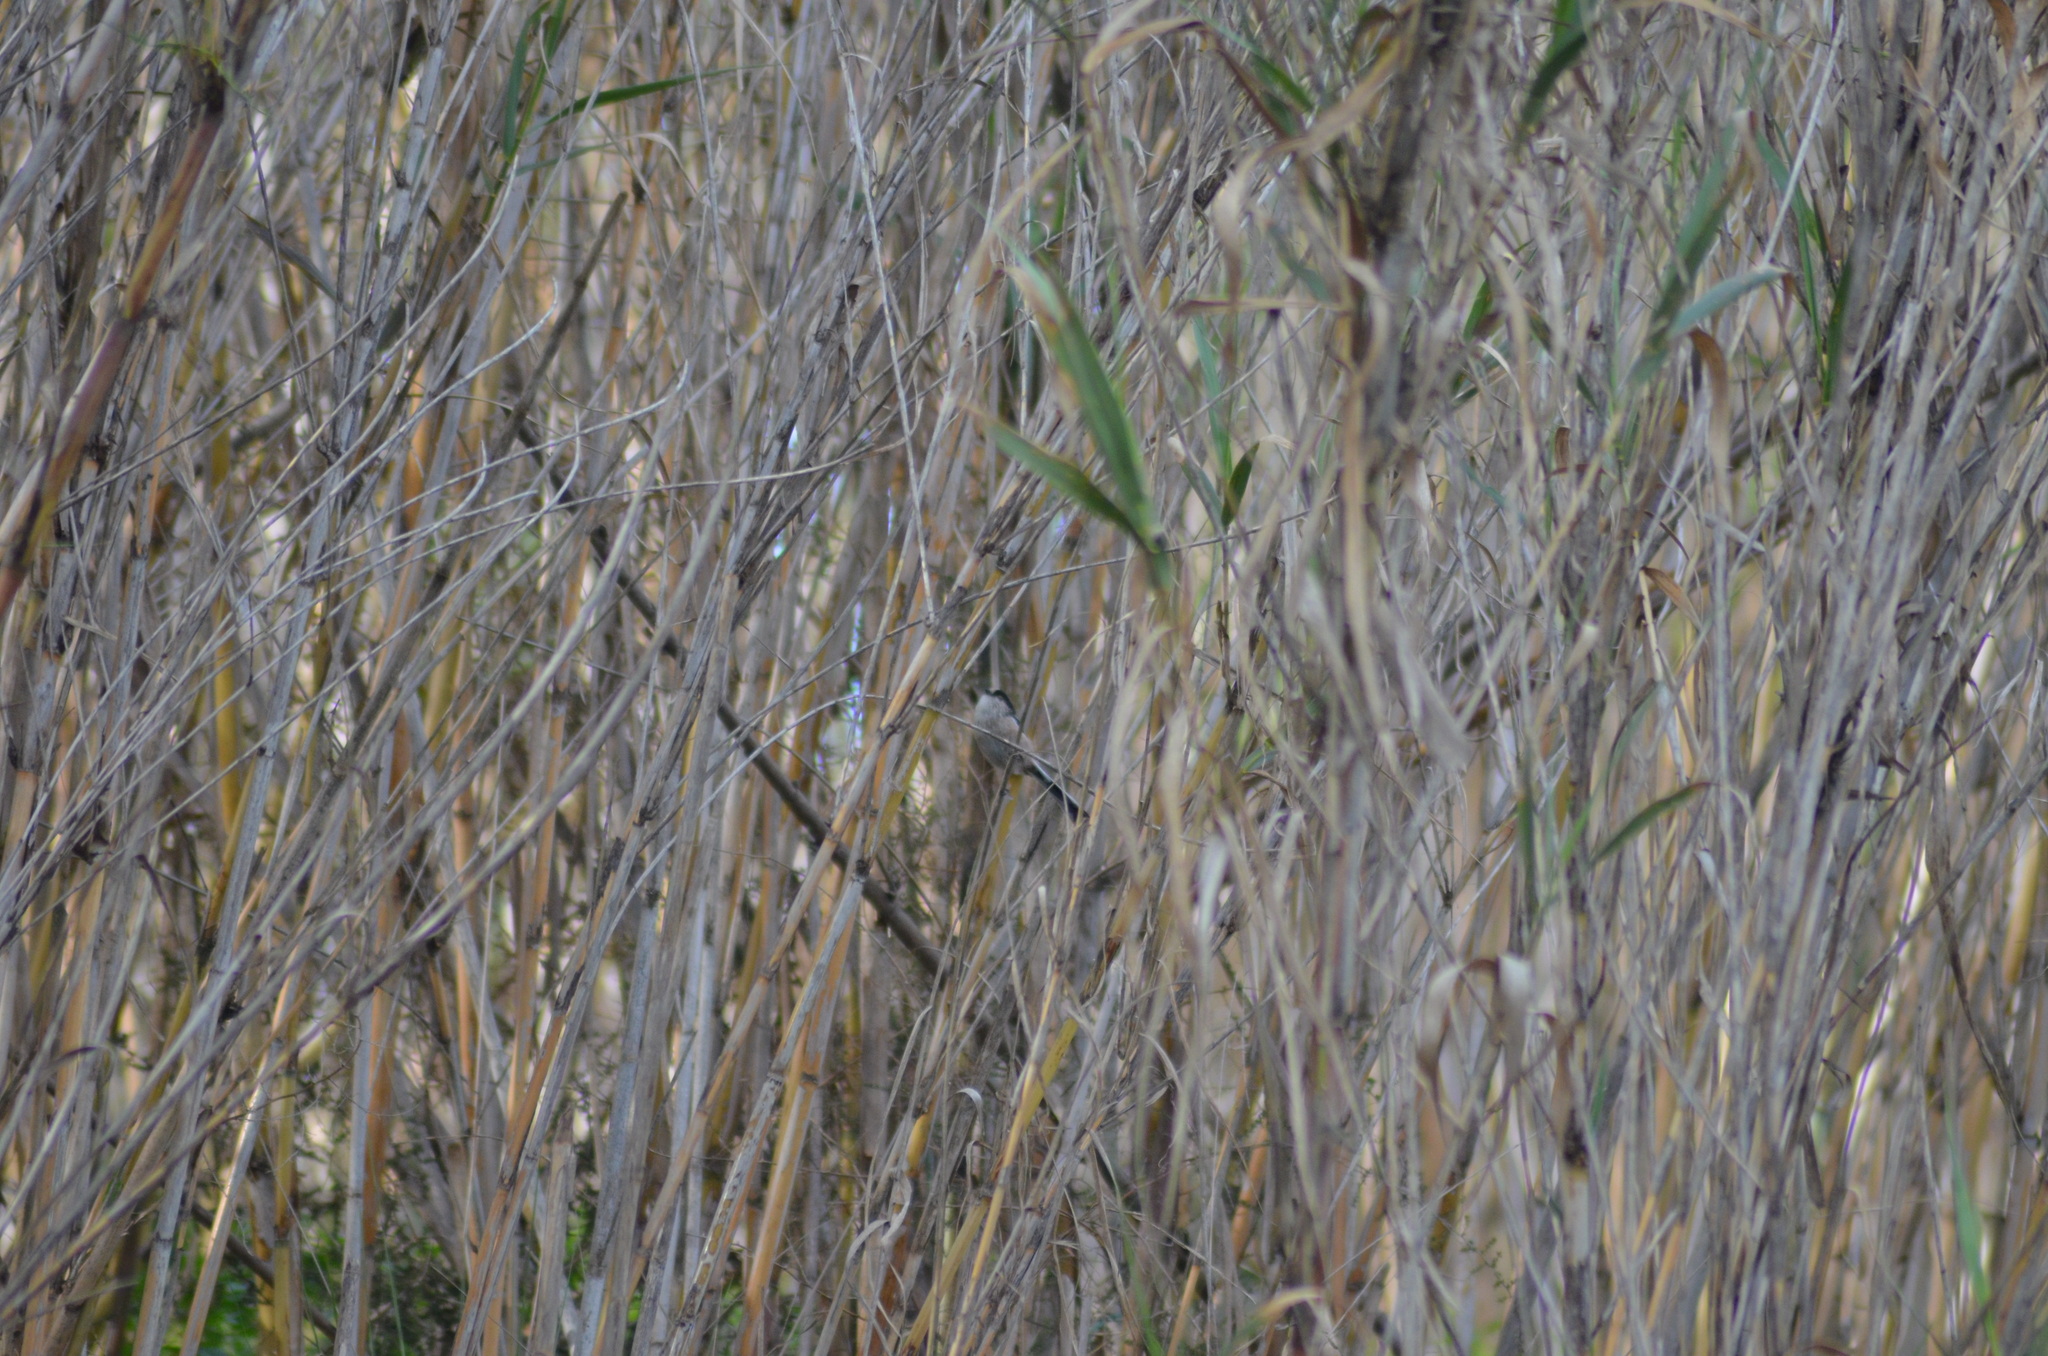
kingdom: Animalia
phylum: Chordata
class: Aves
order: Passeriformes
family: Aegithalidae
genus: Aegithalos
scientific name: Aegithalos caudatus
